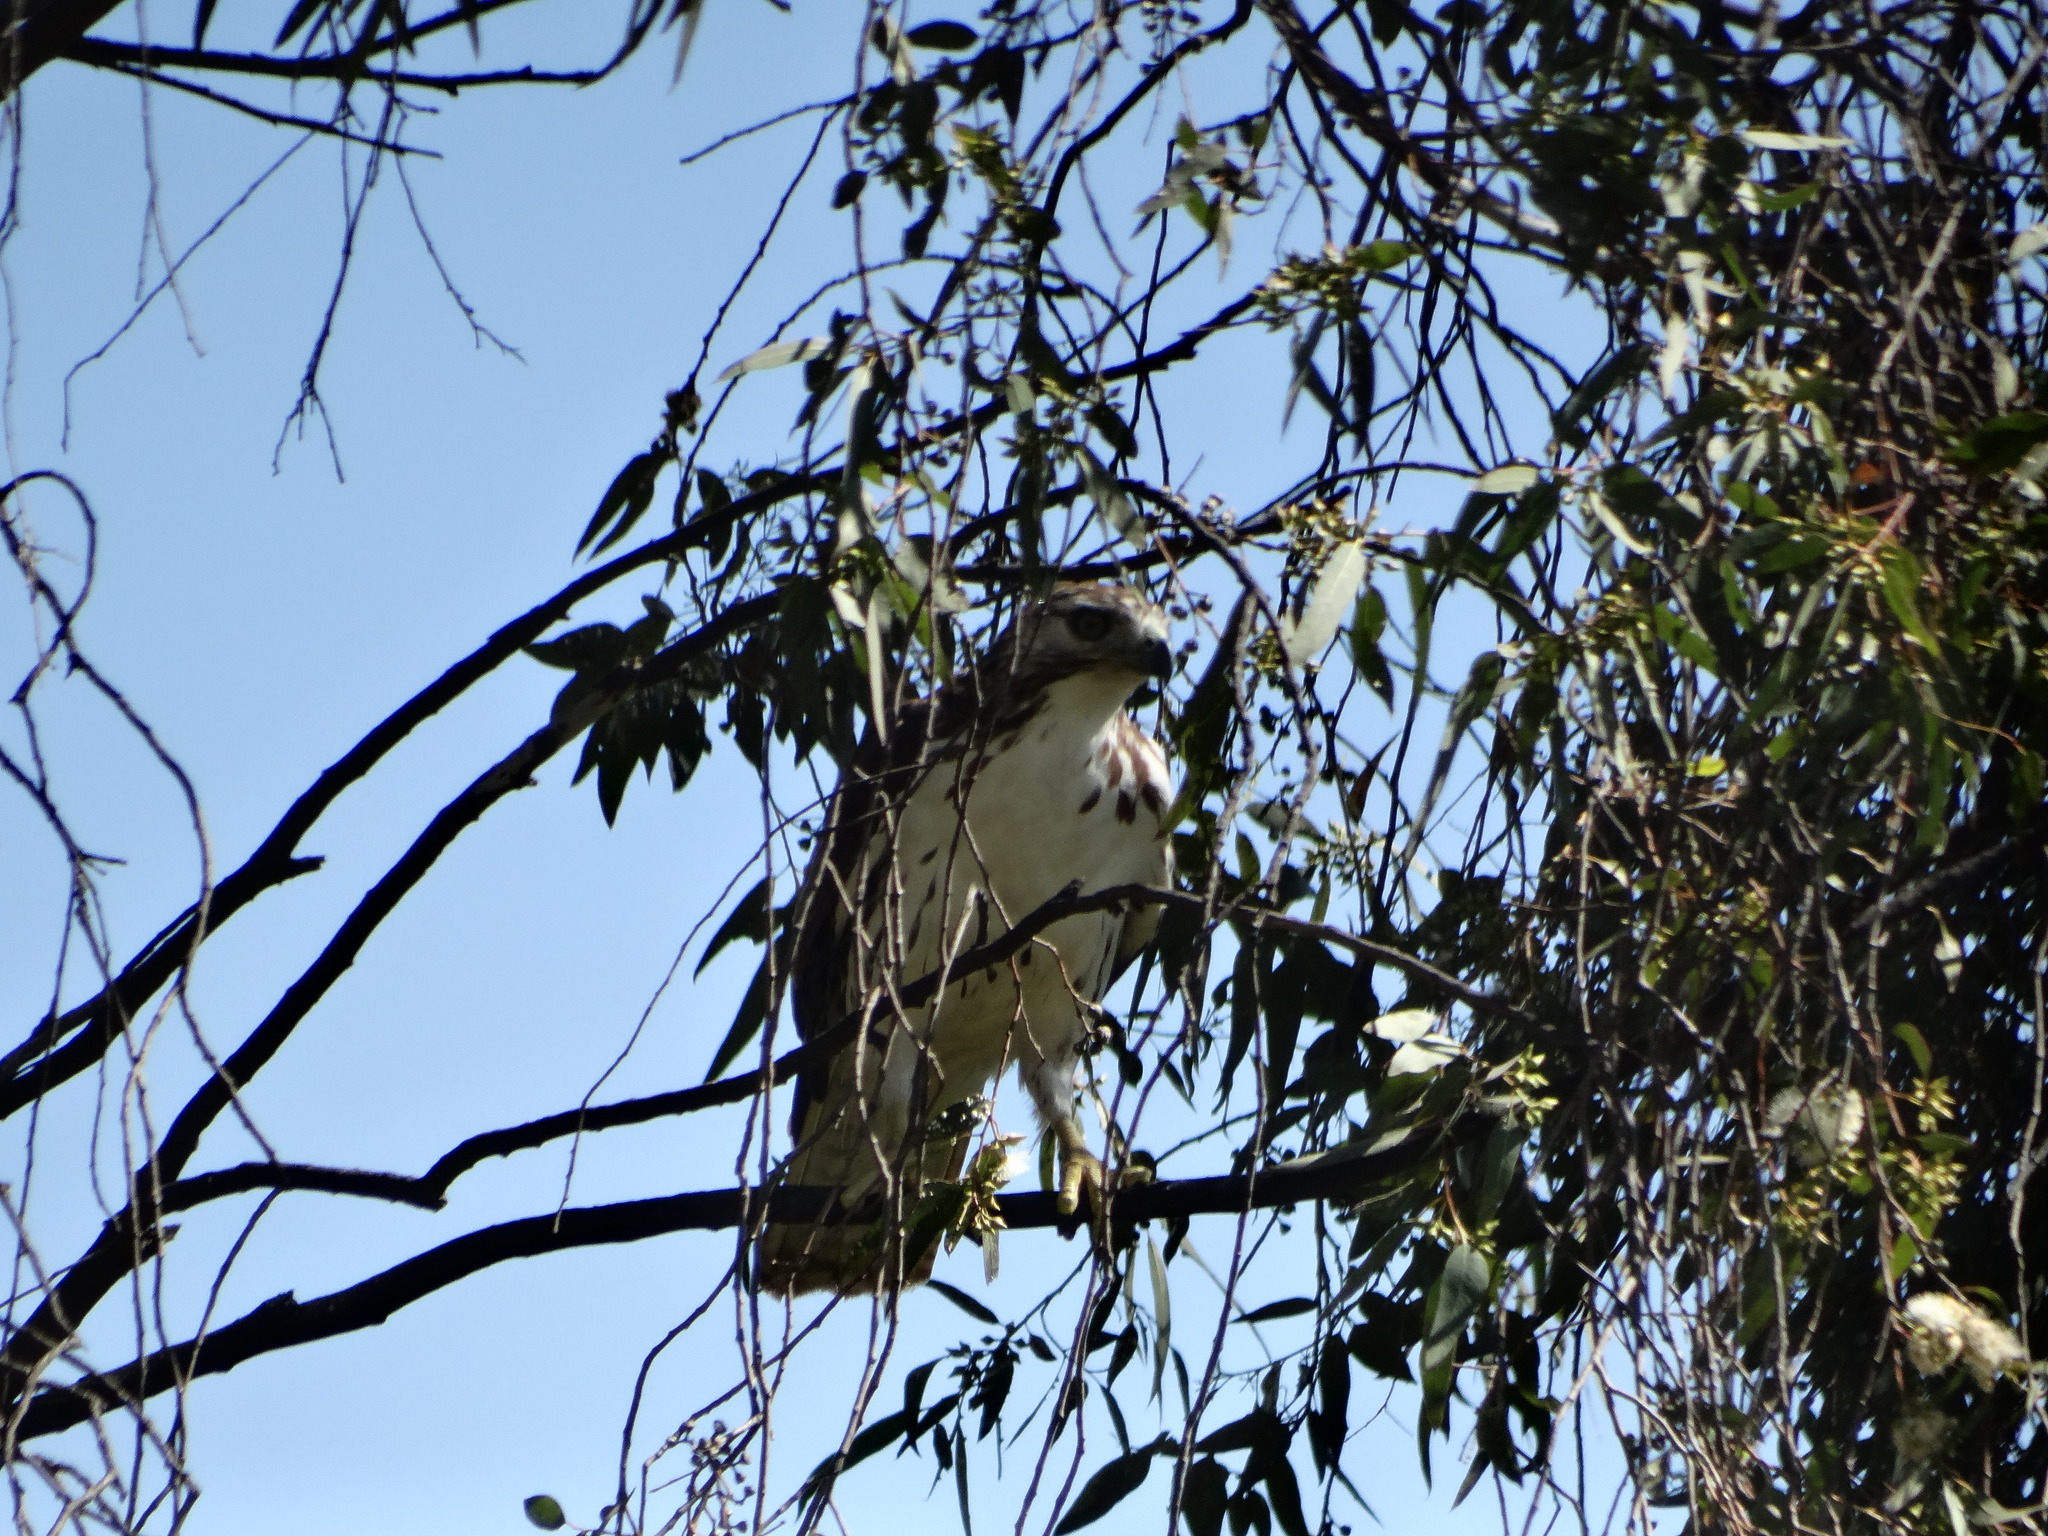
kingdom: Animalia
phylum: Chordata
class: Aves
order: Accipitriformes
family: Accipitridae
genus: Buteo
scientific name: Buteo jamaicensis
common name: Red-tailed hawk
